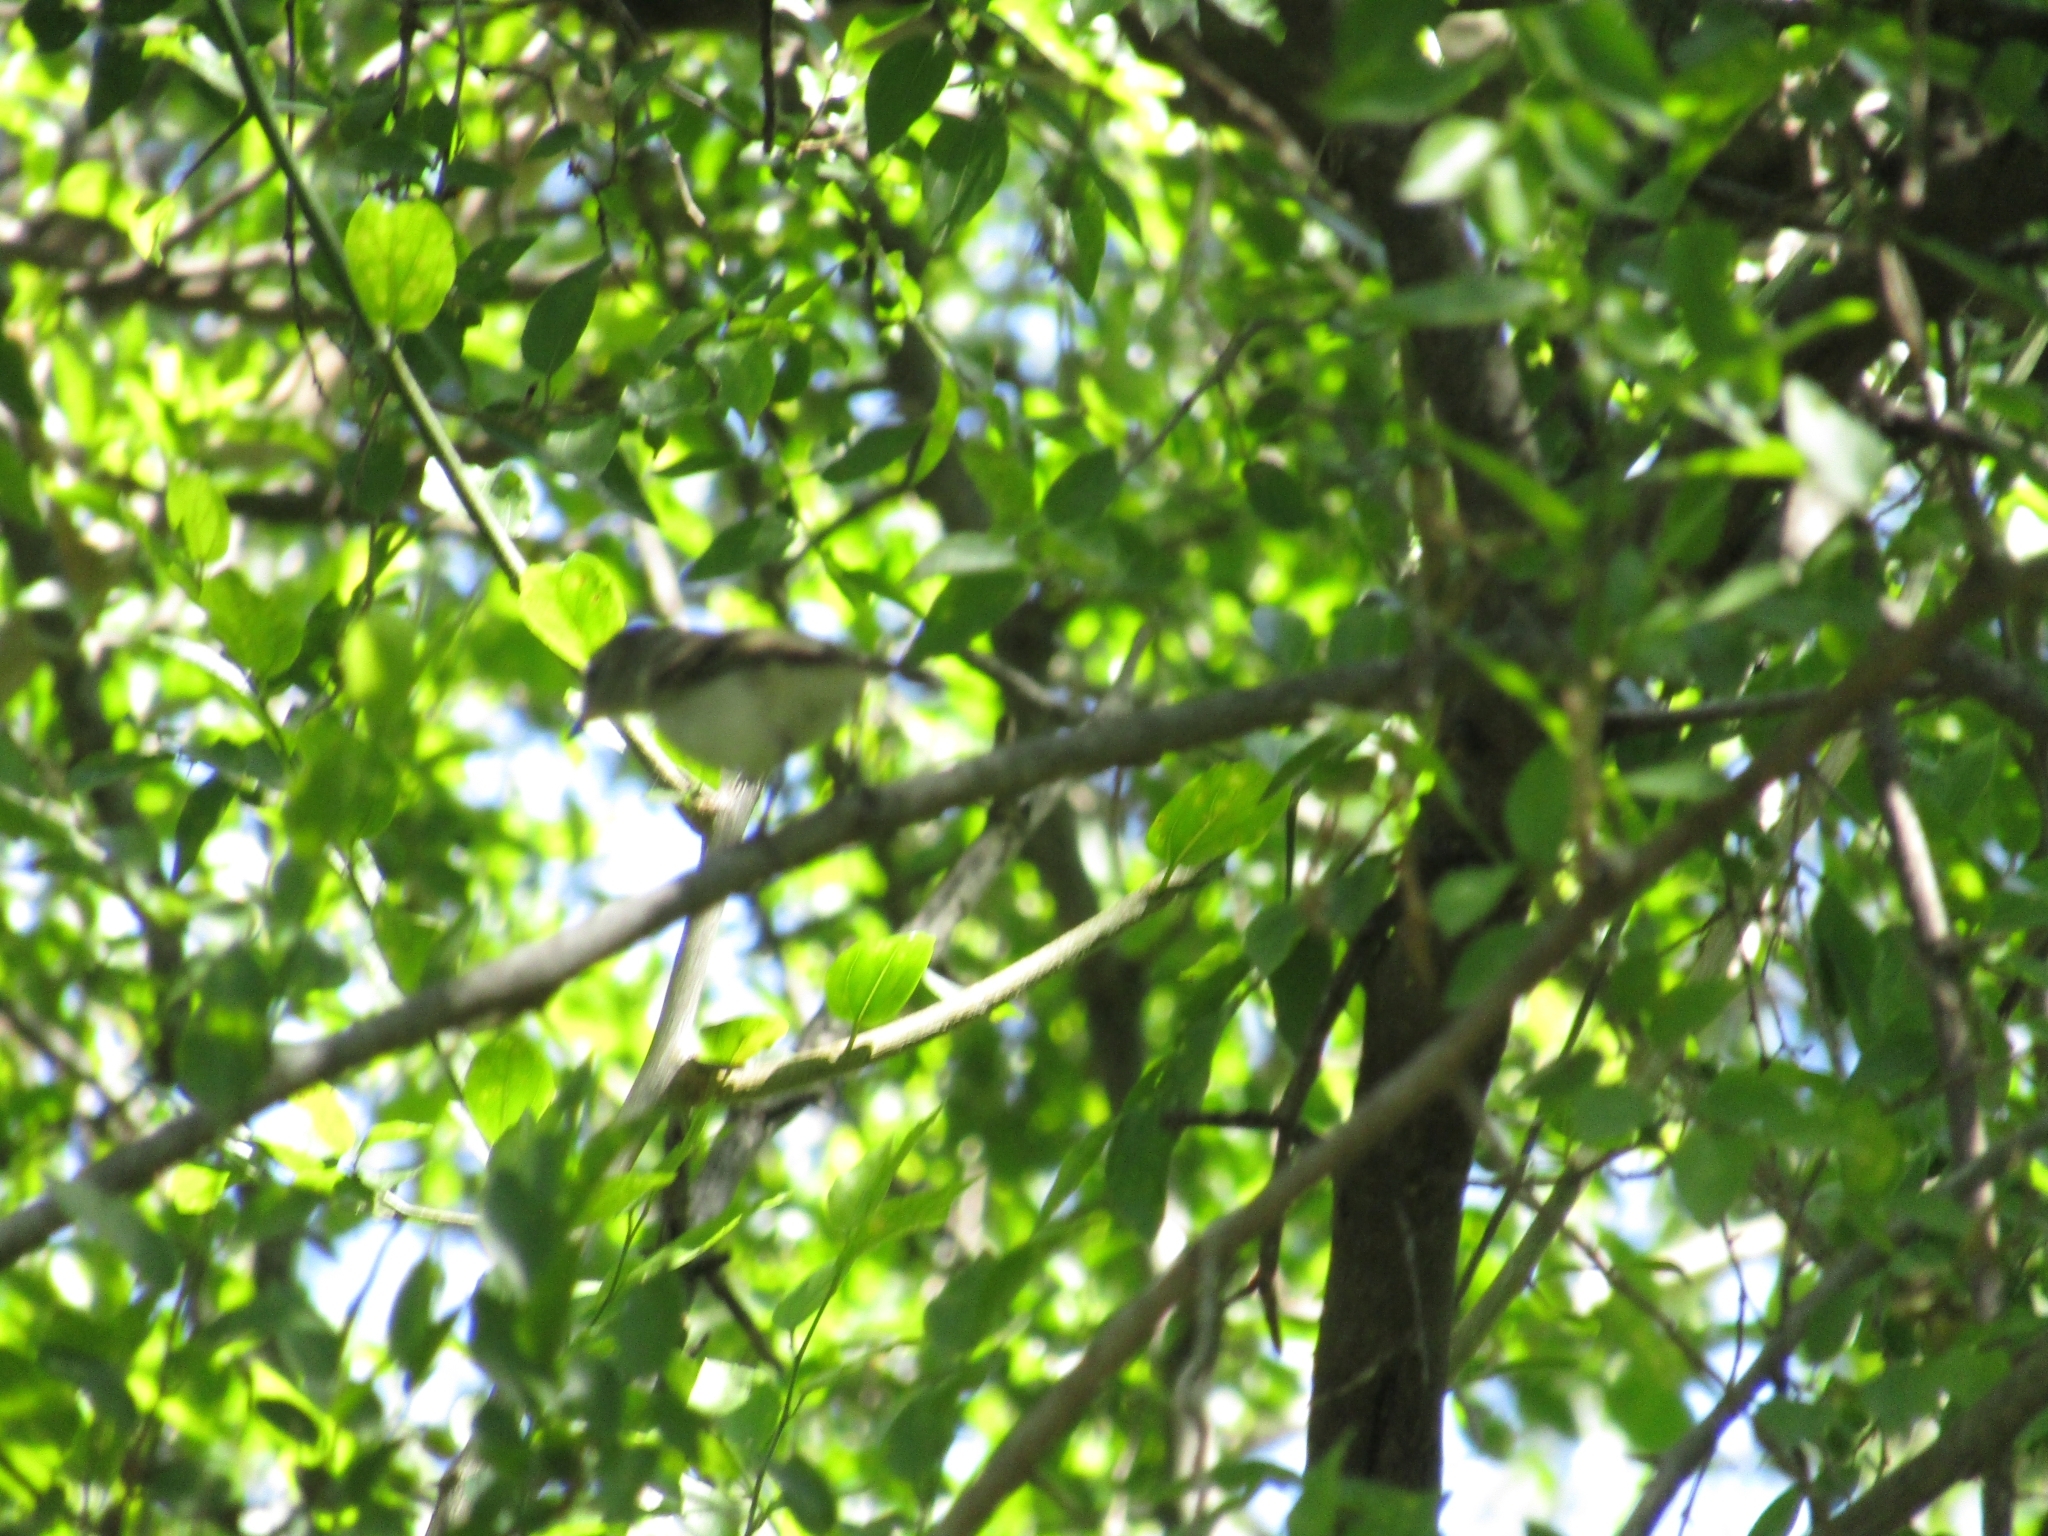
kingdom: Animalia
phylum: Chordata
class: Aves
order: Passeriformes
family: Tyrannidae
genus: Serpophaga
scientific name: Serpophaga subcristata
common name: White-crested tyrannulet
